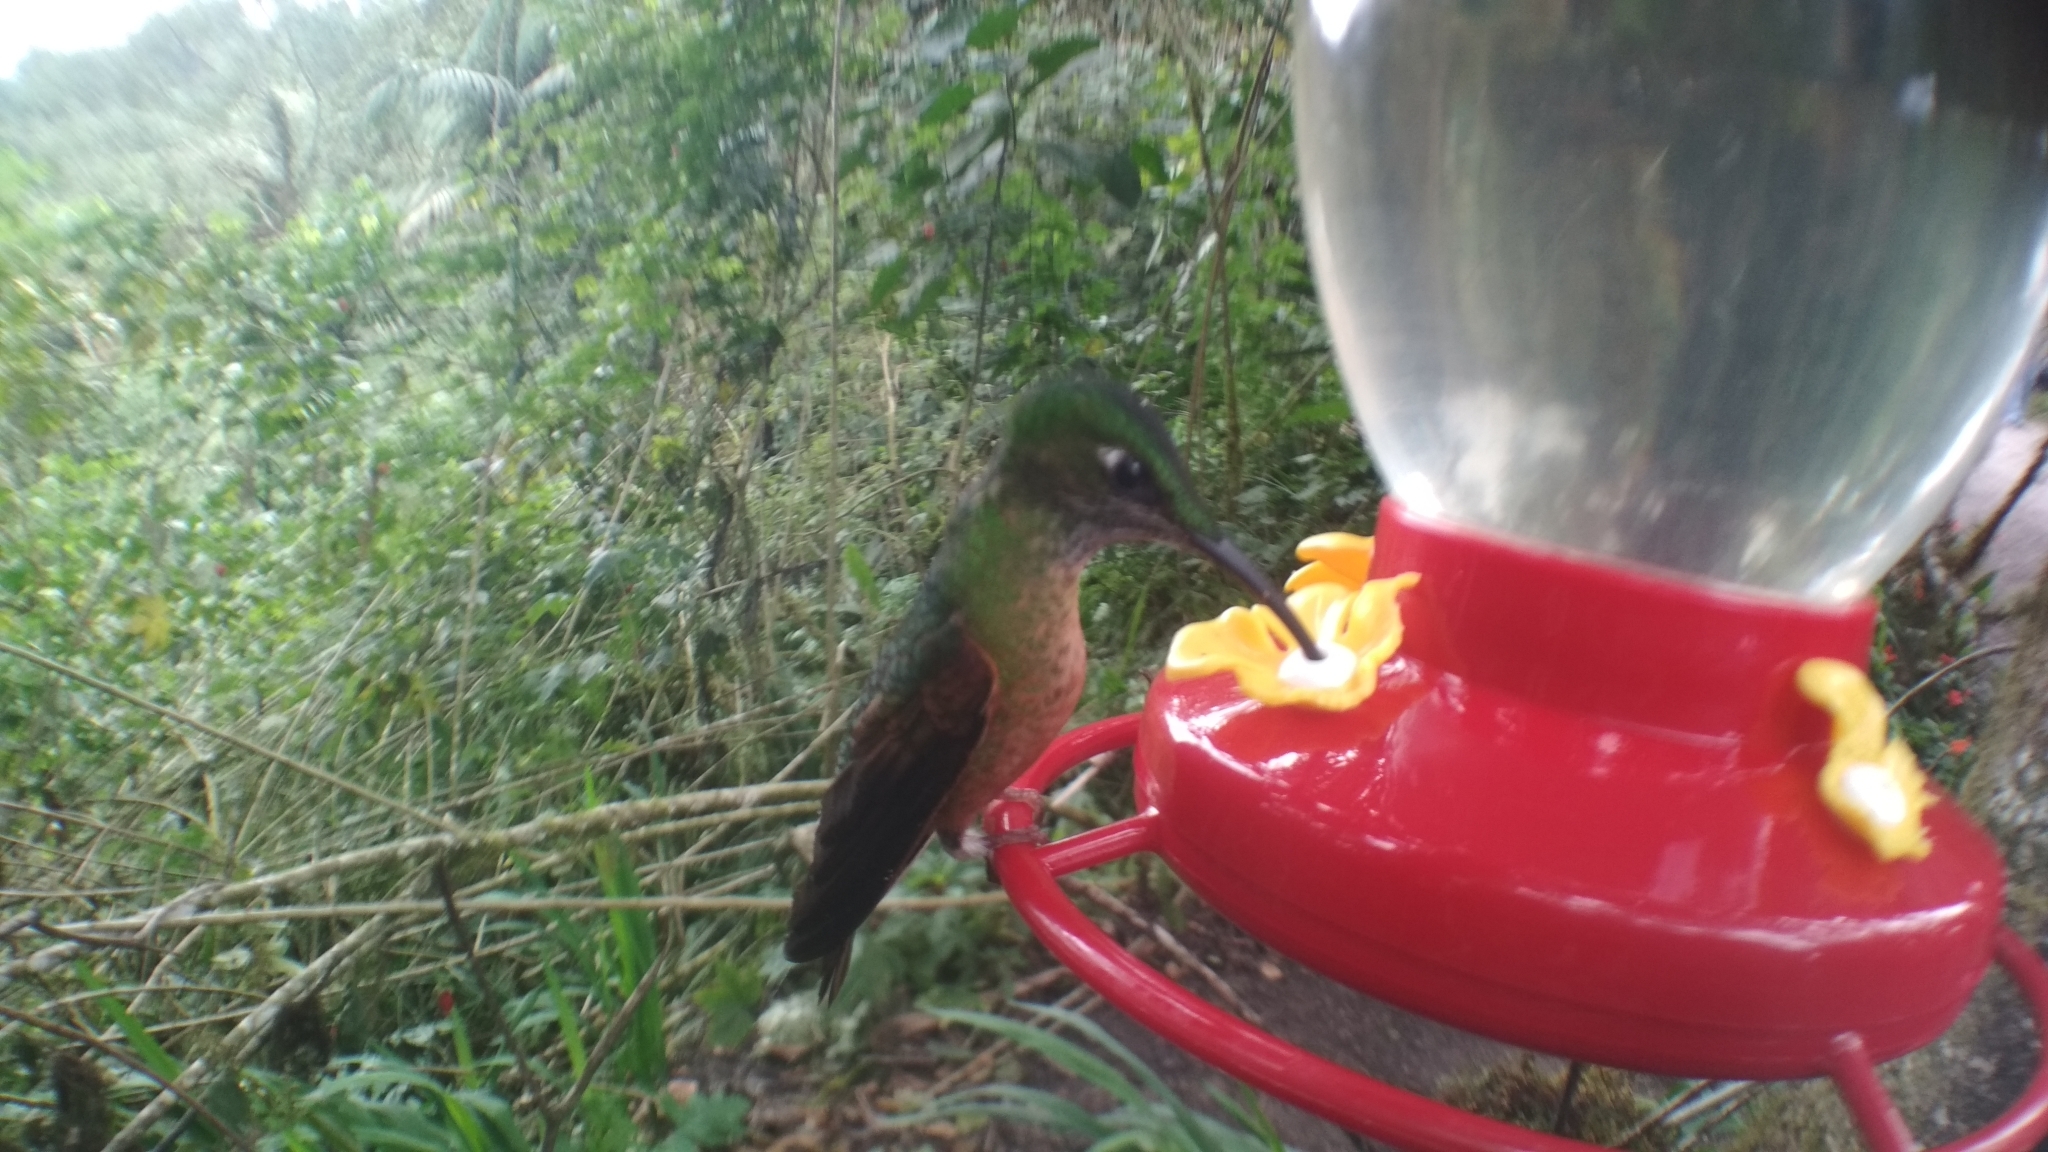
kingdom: Animalia
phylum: Chordata
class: Aves
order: Apodiformes
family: Trochilidae
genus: Heliodoxa
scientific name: Heliodoxa rubinoides
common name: Fawn-breasted brilliant
